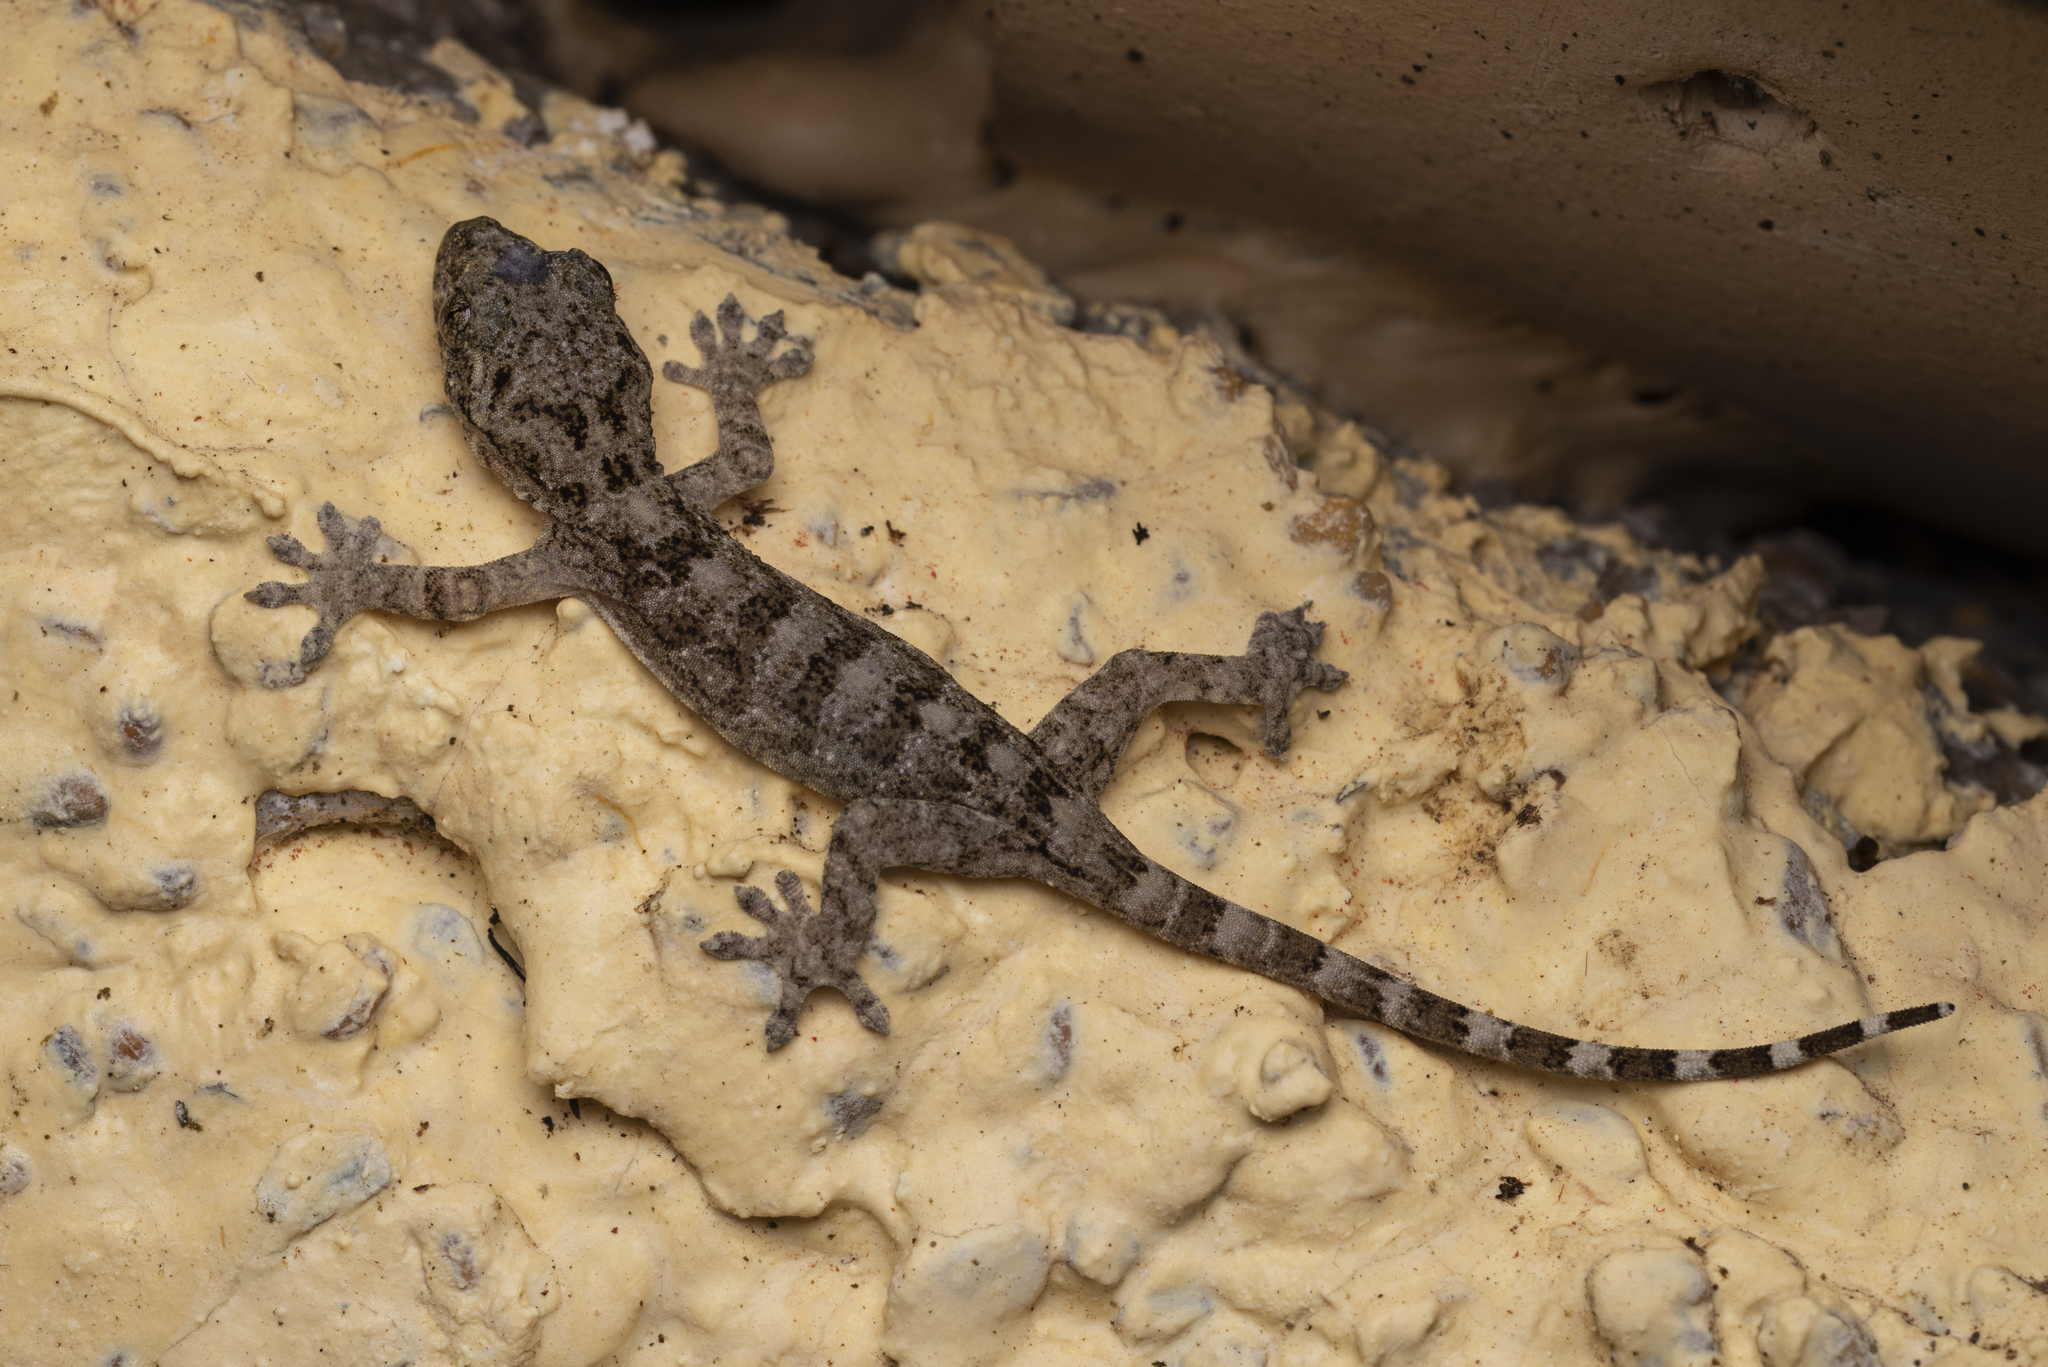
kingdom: Animalia
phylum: Chordata
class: Squamata
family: Gekkonidae
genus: Gekko
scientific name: Gekko chinensis
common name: Gray's chinese gecko
